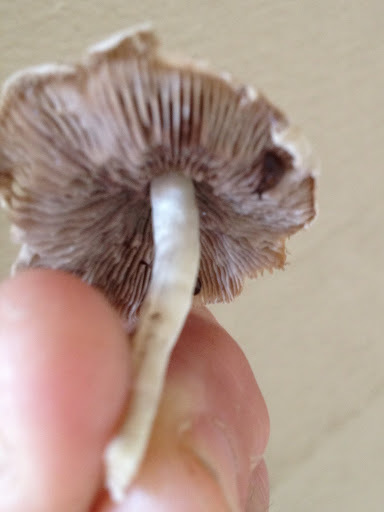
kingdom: Fungi
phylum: Basidiomycota
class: Agaricomycetes
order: Agaricales
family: Psathyrellaceae
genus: Candolleomyces
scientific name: Candolleomyces candolleanus
